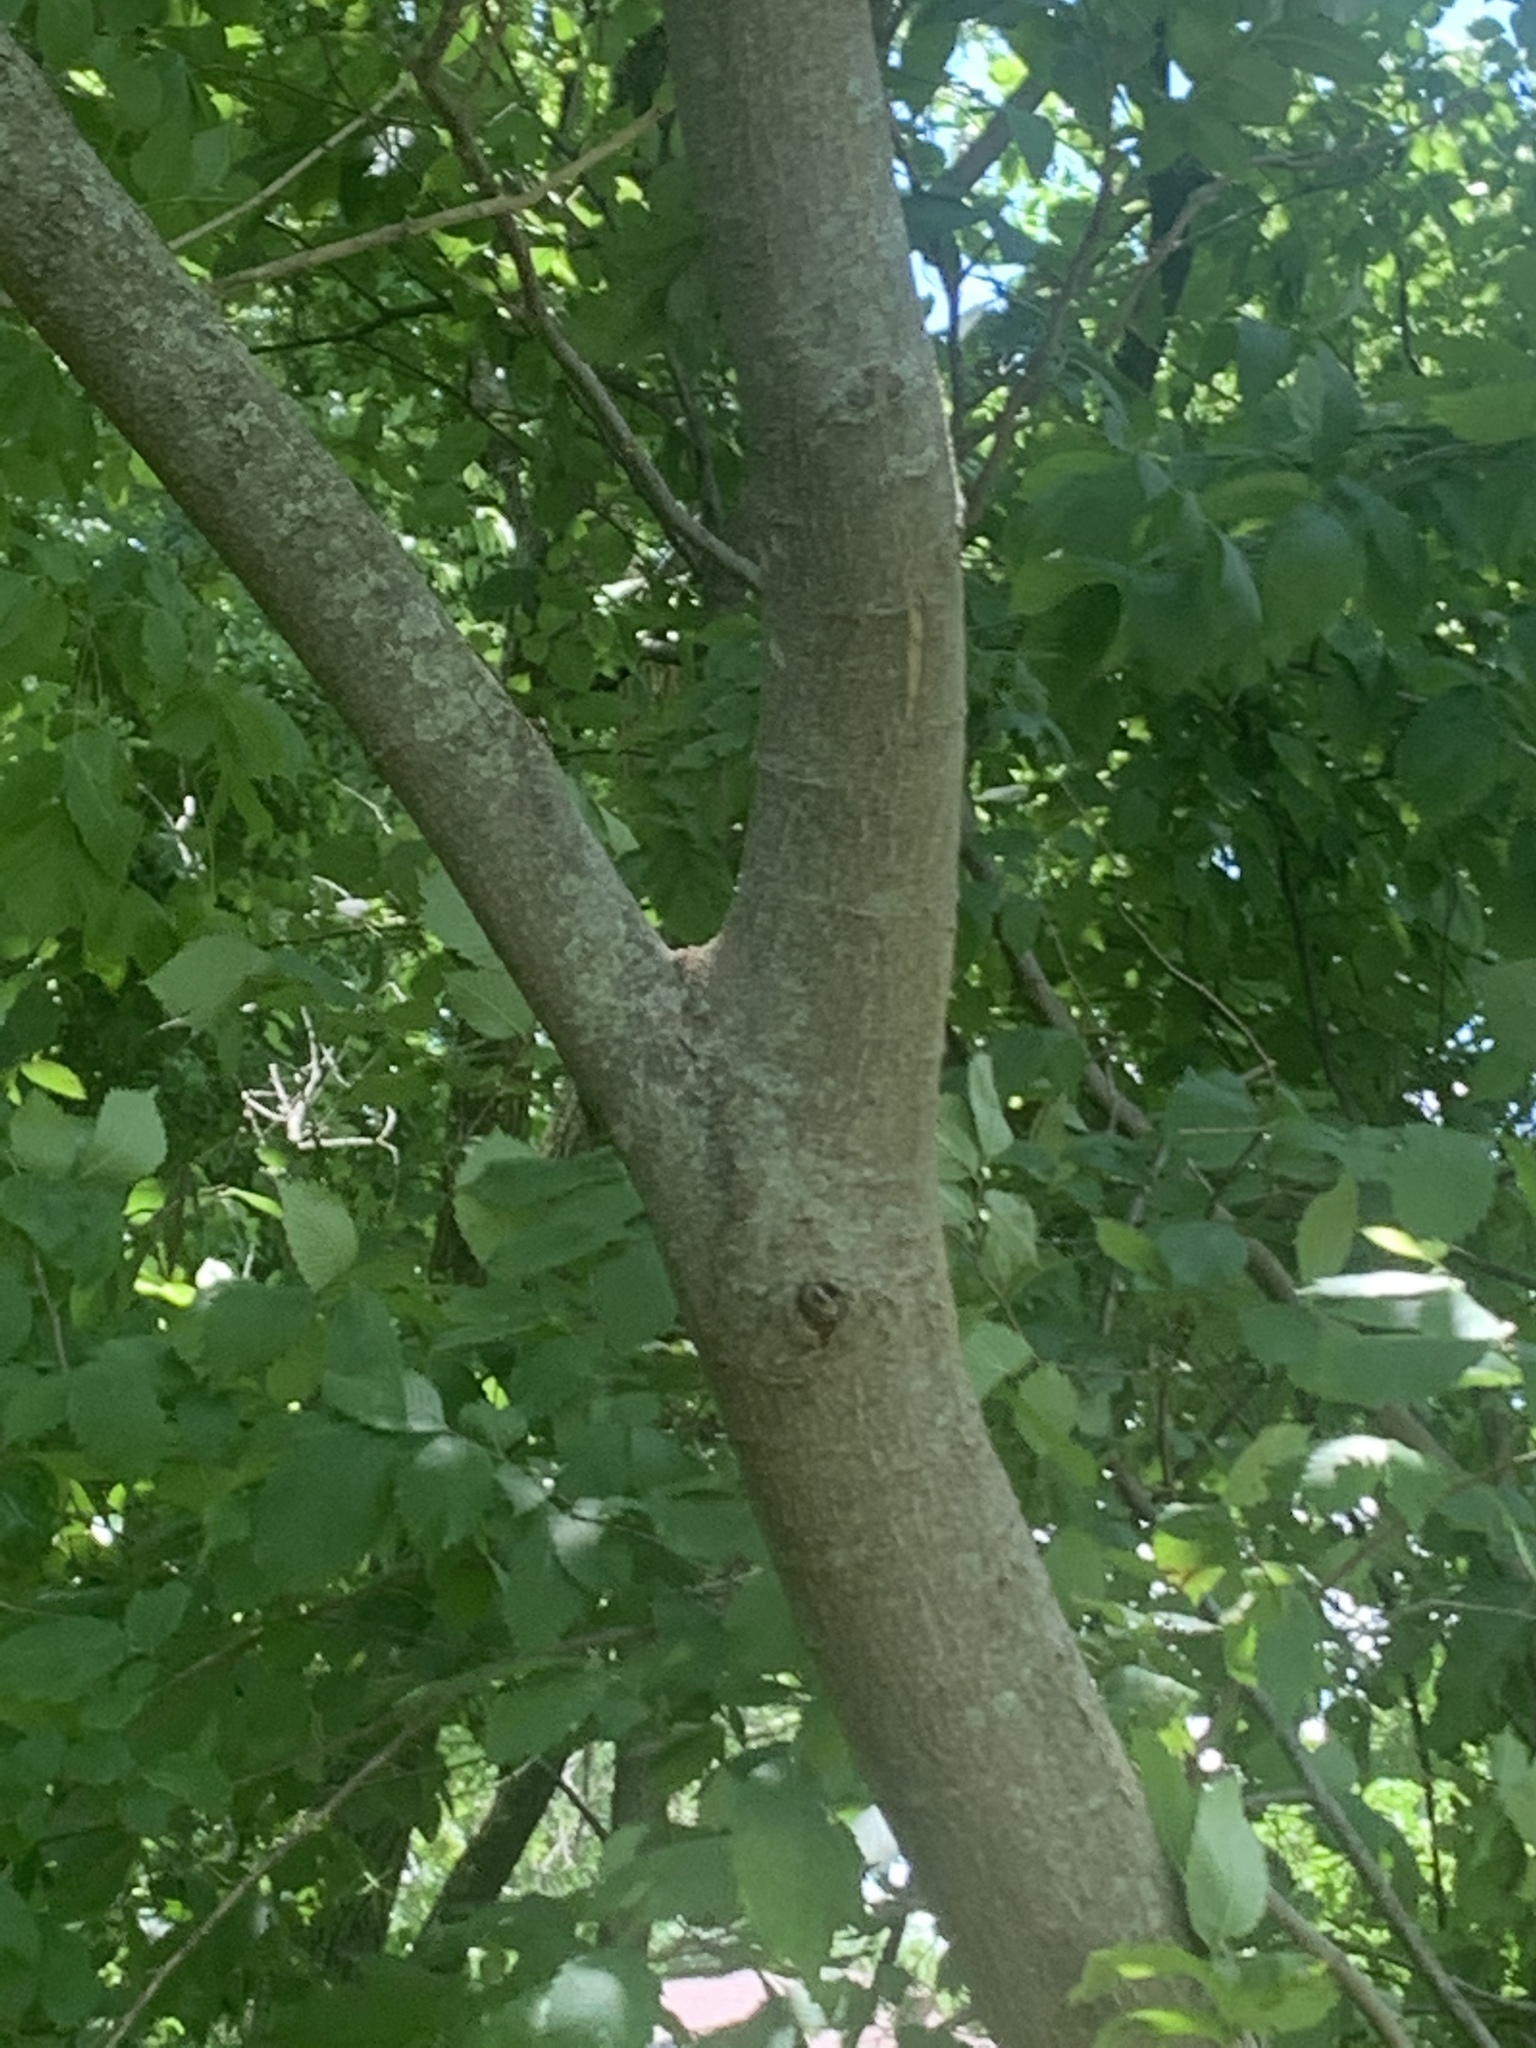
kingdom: Plantae
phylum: Tracheophyta
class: Magnoliopsida
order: Fabales
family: Fabaceae
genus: Albizia
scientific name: Albizia julibrissin
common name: Silktree
